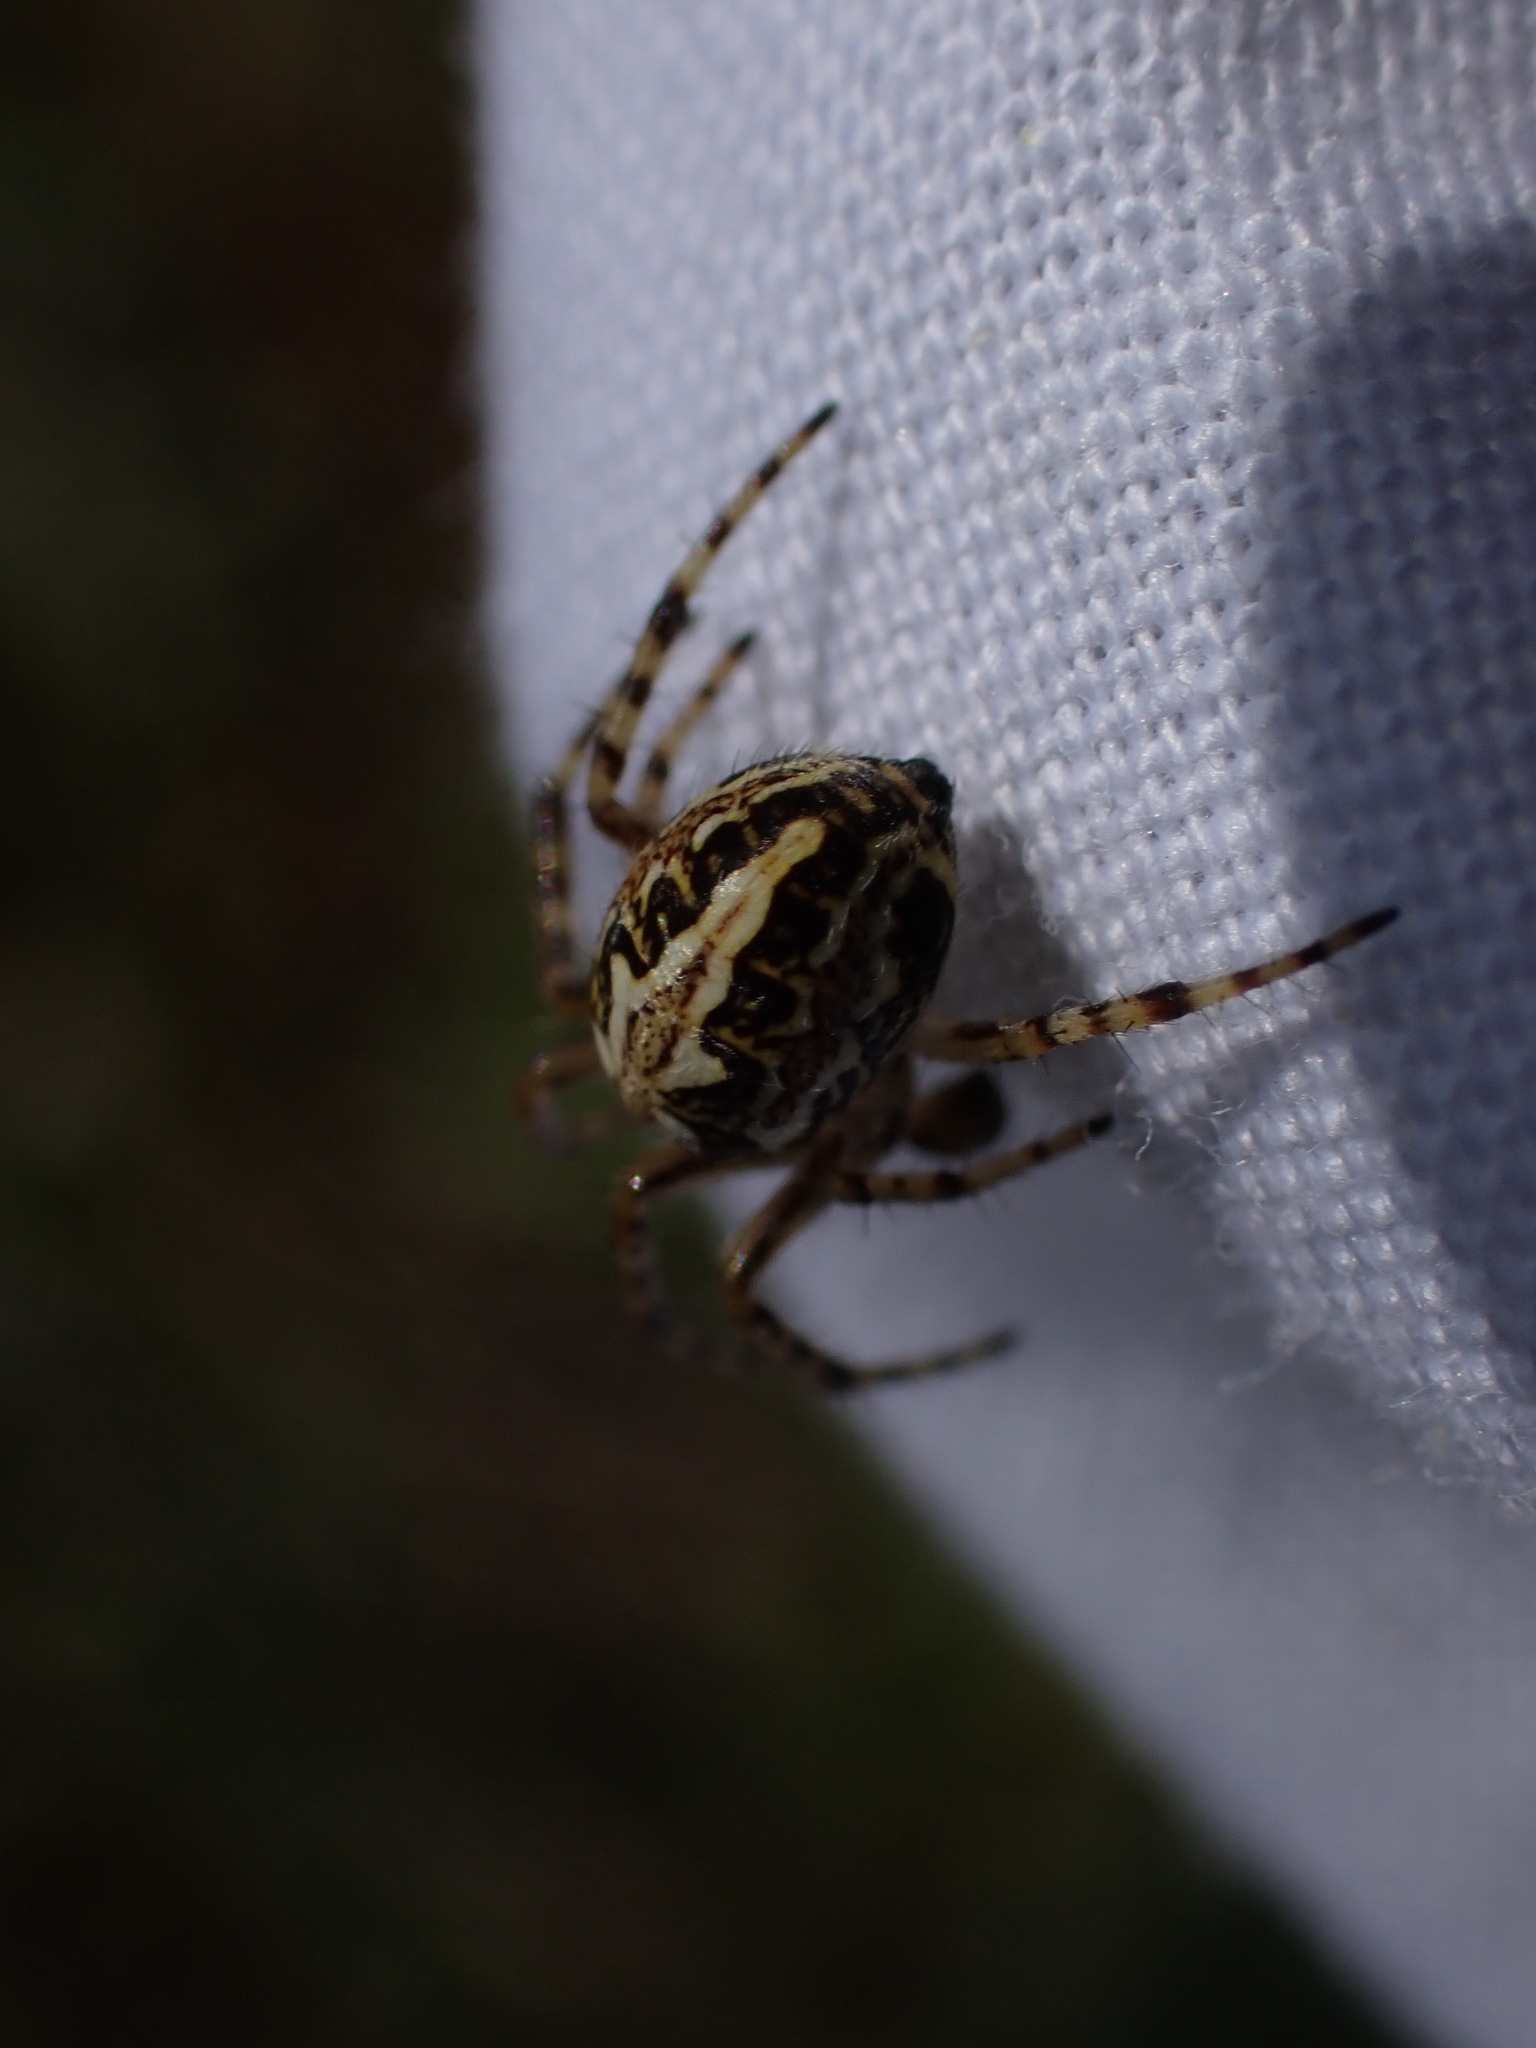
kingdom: Animalia
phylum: Arthropoda
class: Arachnida
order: Araneae
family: Araneidae
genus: Aculepeira
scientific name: Aculepeira ceropegia
